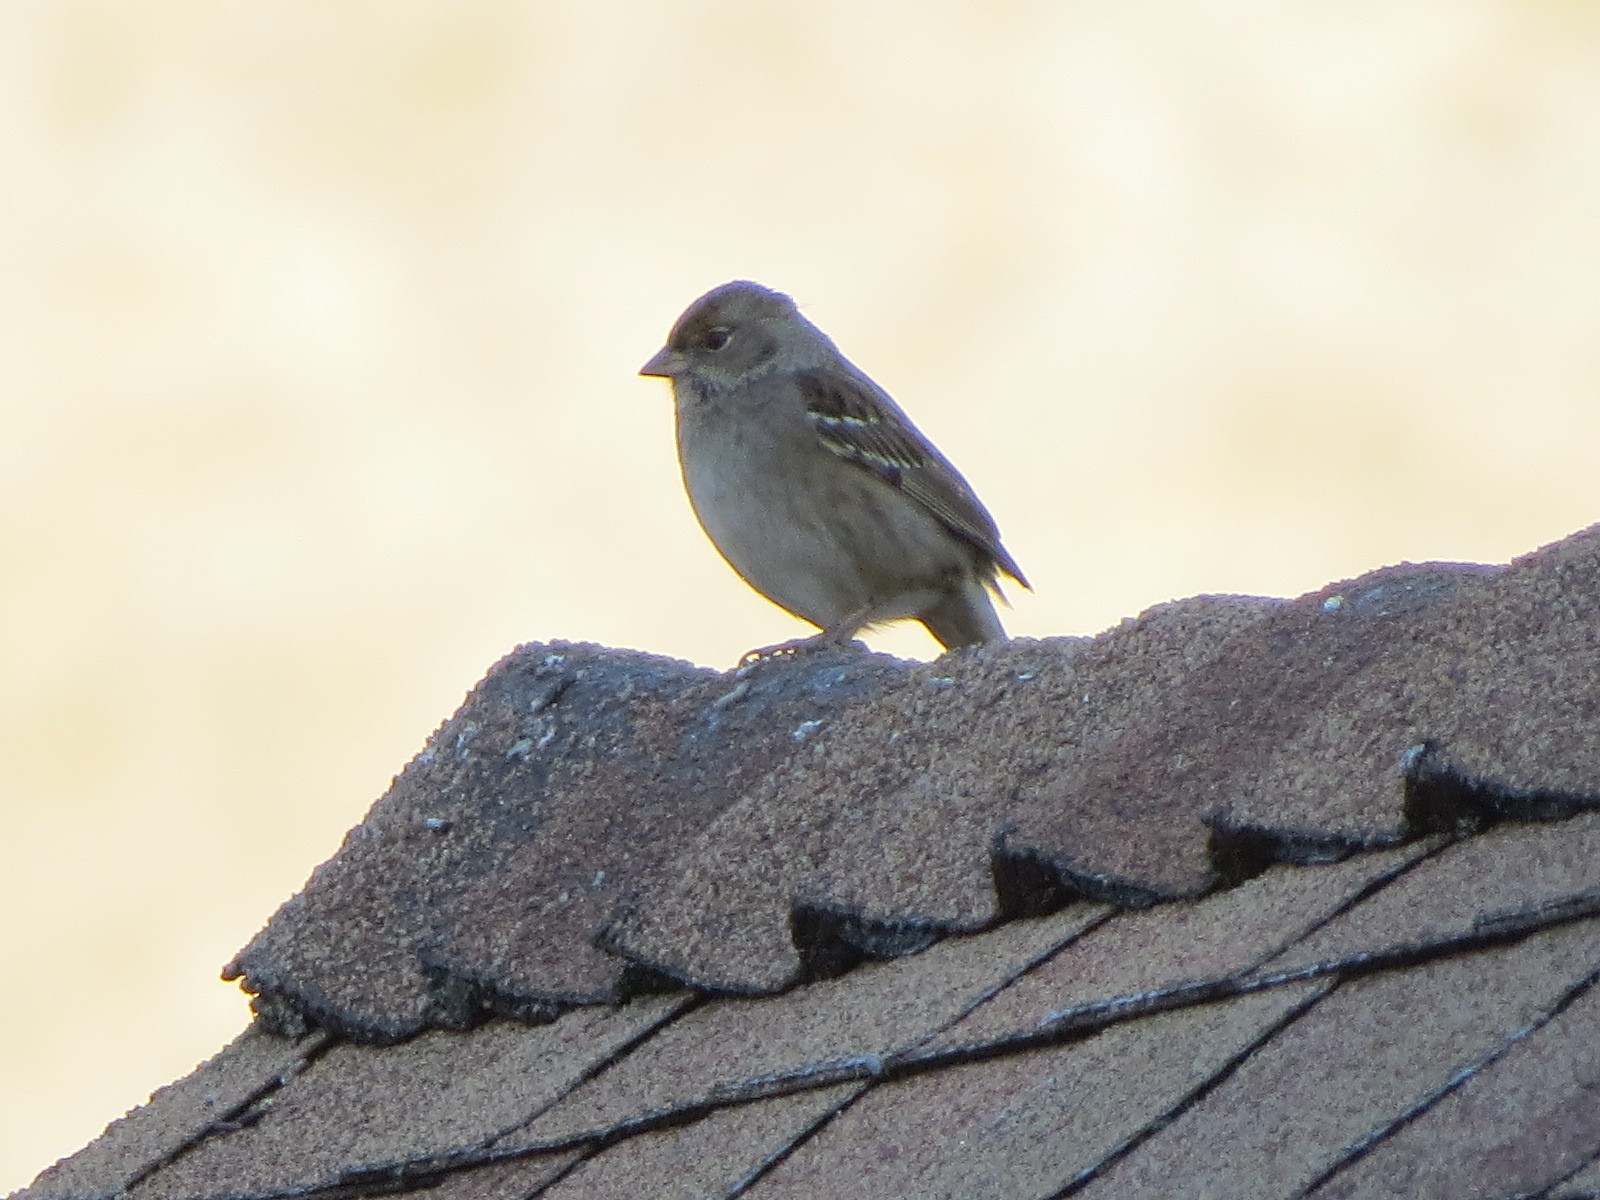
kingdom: Animalia
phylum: Chordata
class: Aves
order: Passeriformes
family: Passerellidae
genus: Zonotrichia
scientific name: Zonotrichia atricapilla
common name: Golden-crowned sparrow
